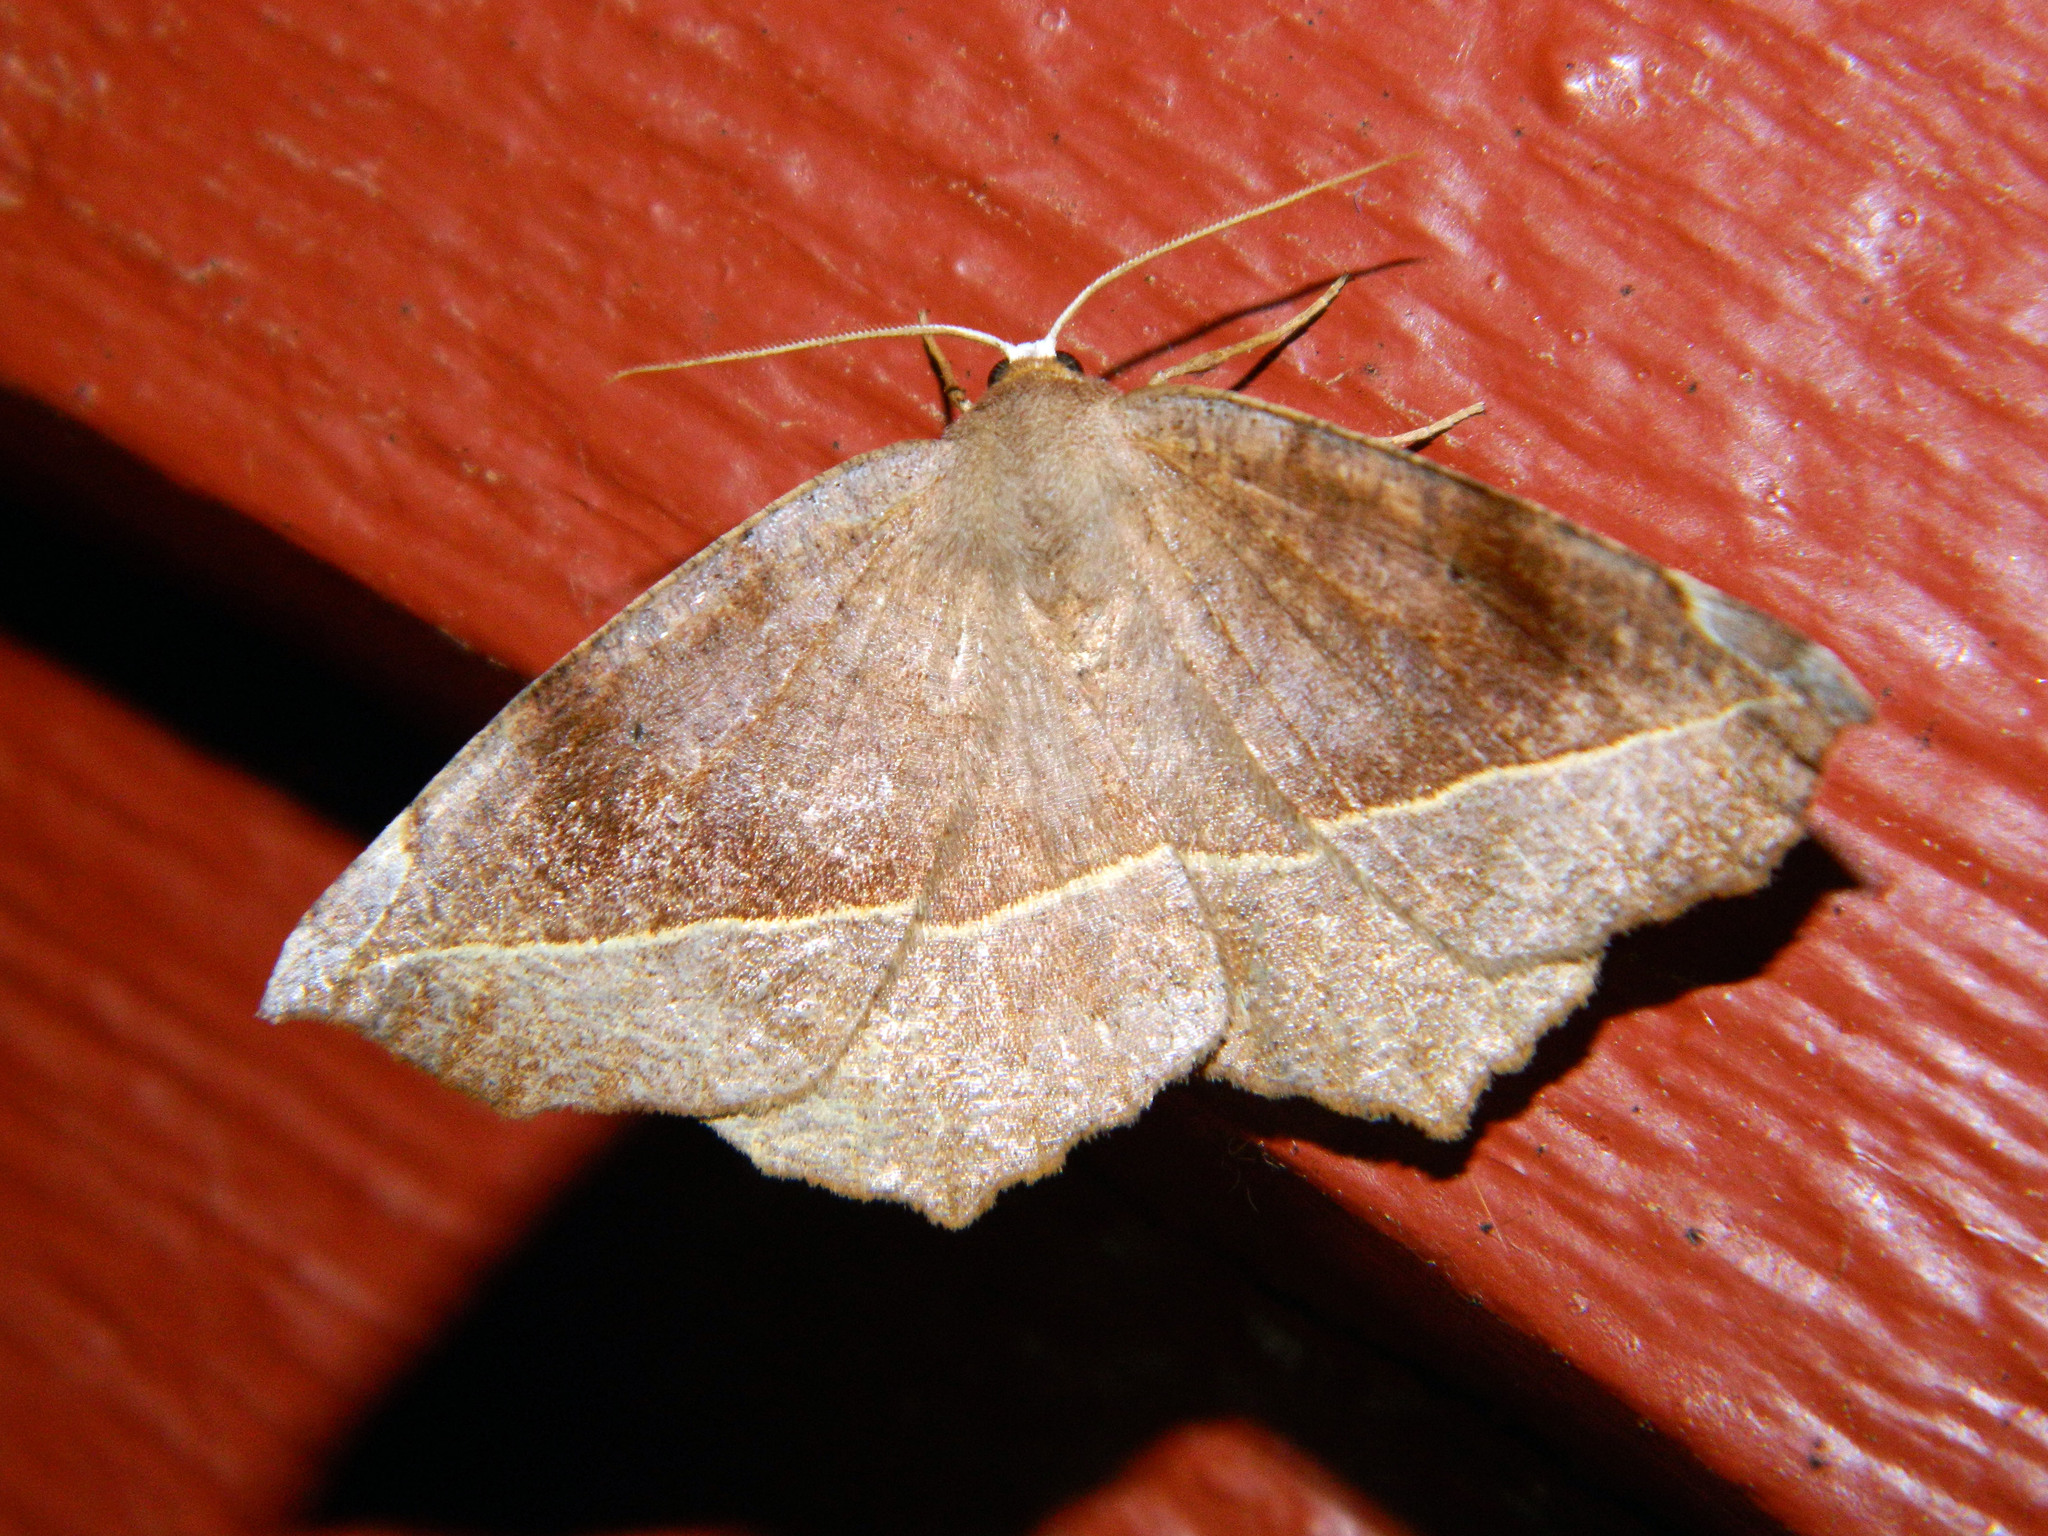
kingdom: Animalia
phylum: Arthropoda
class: Insecta
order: Lepidoptera
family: Geometridae
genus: Eutrapela
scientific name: Eutrapela clemataria
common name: Curved-toothed geometer
